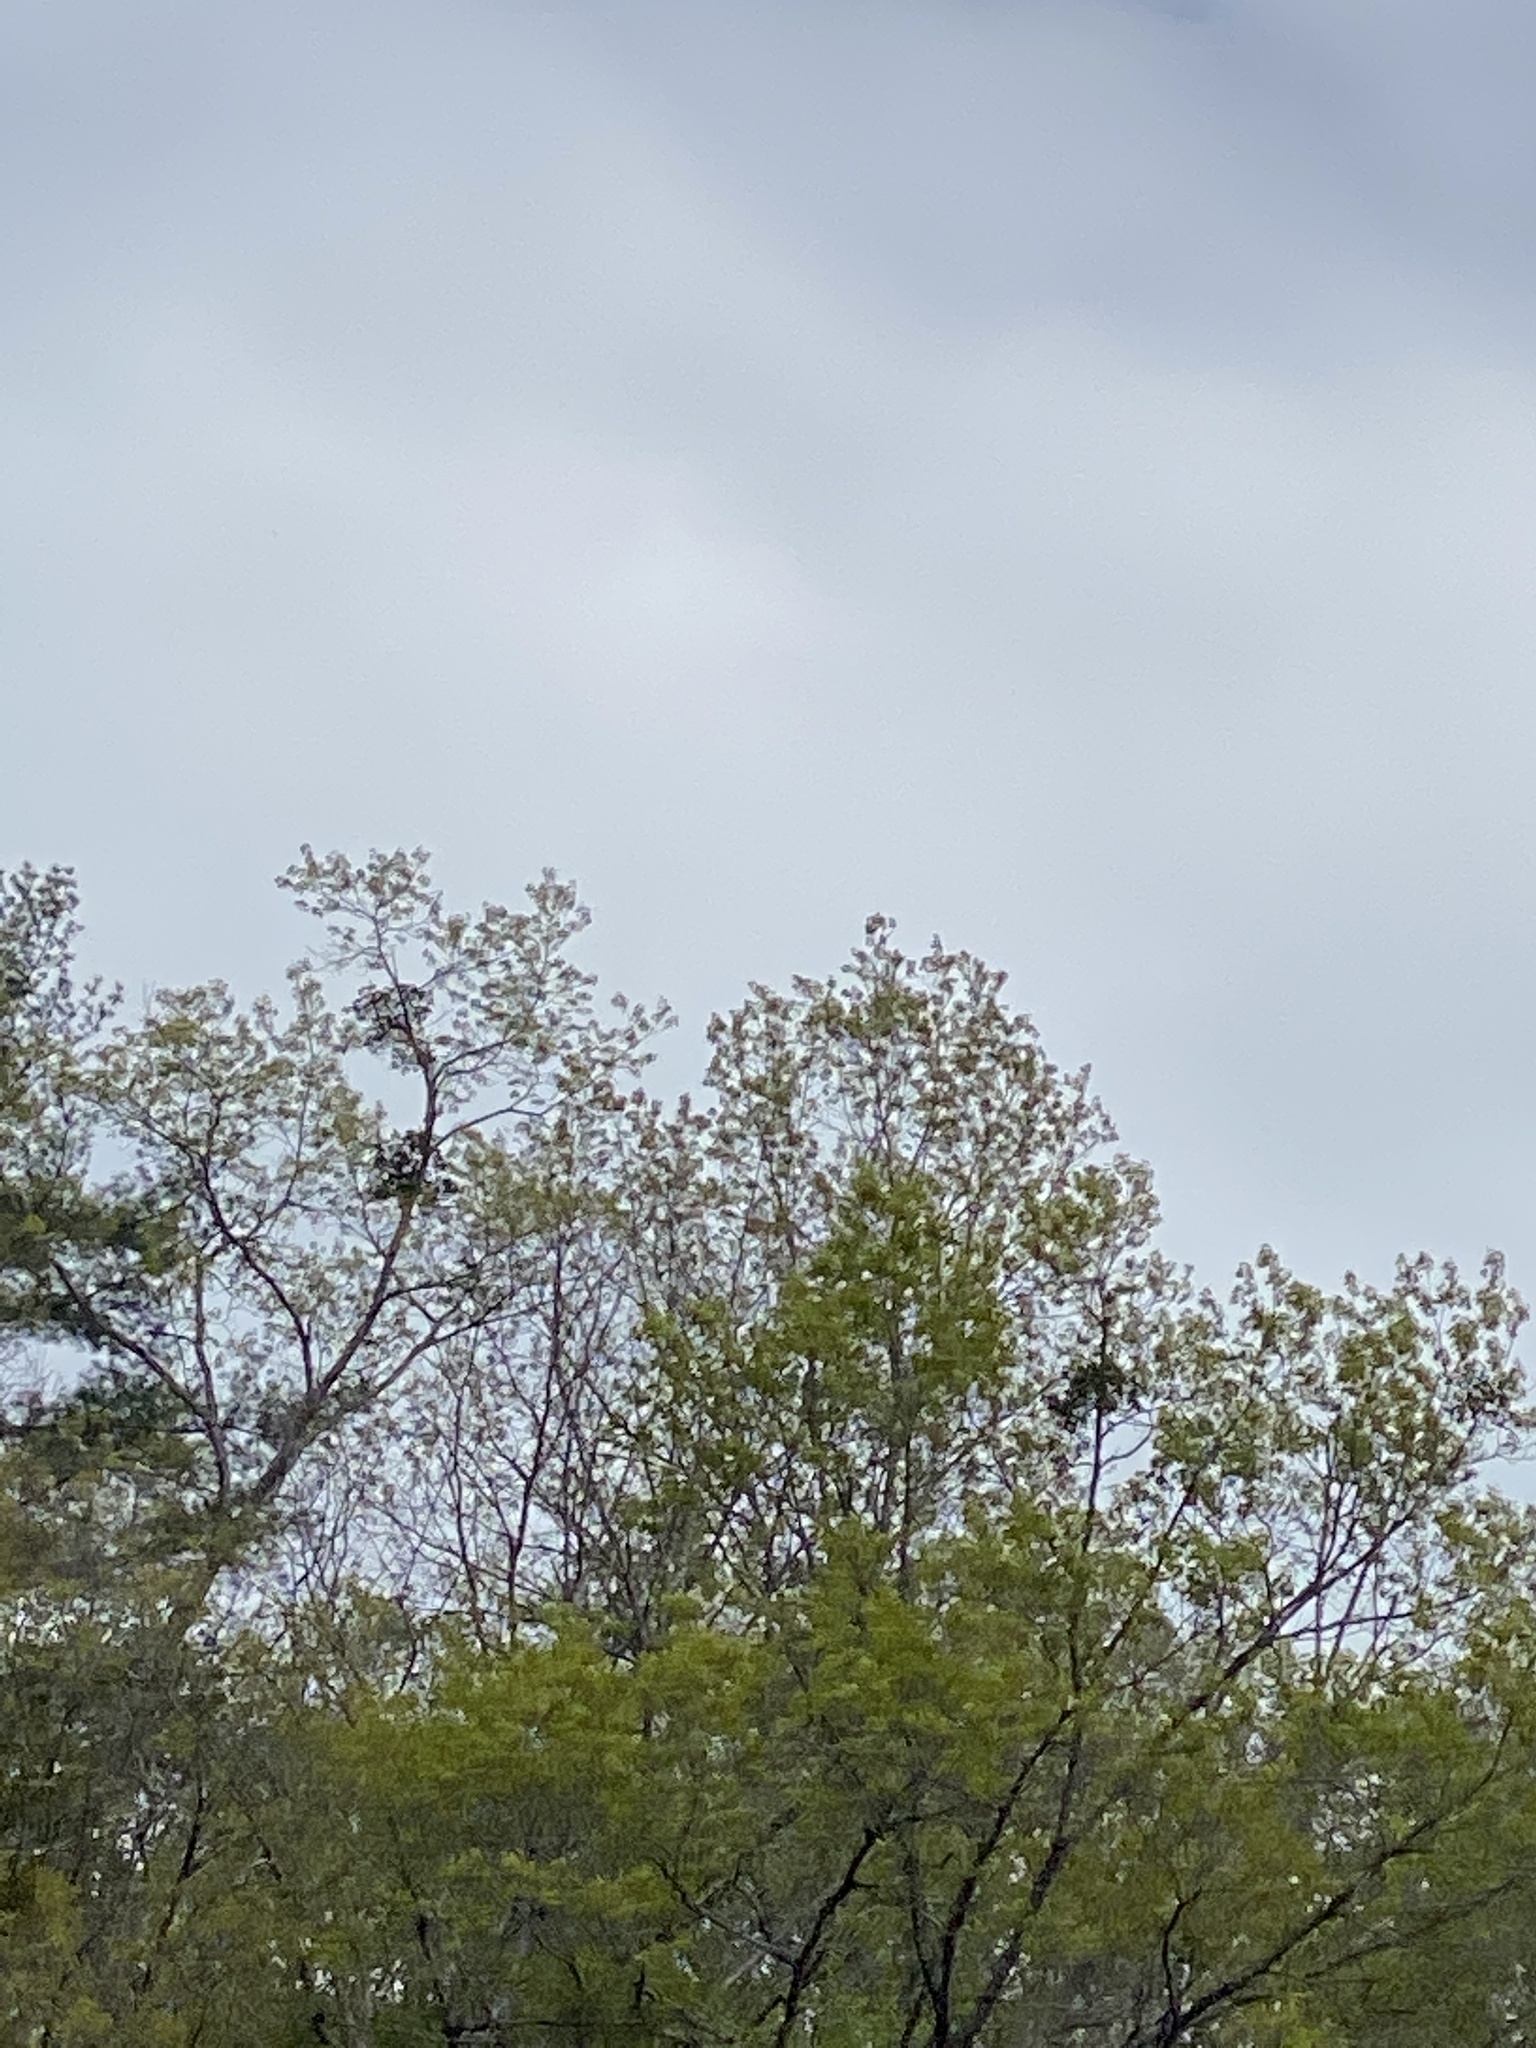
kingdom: Plantae
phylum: Tracheophyta
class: Magnoliopsida
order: Santalales
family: Viscaceae
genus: Phoradendron
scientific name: Phoradendron leucarpum
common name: Pacific mistletoe
